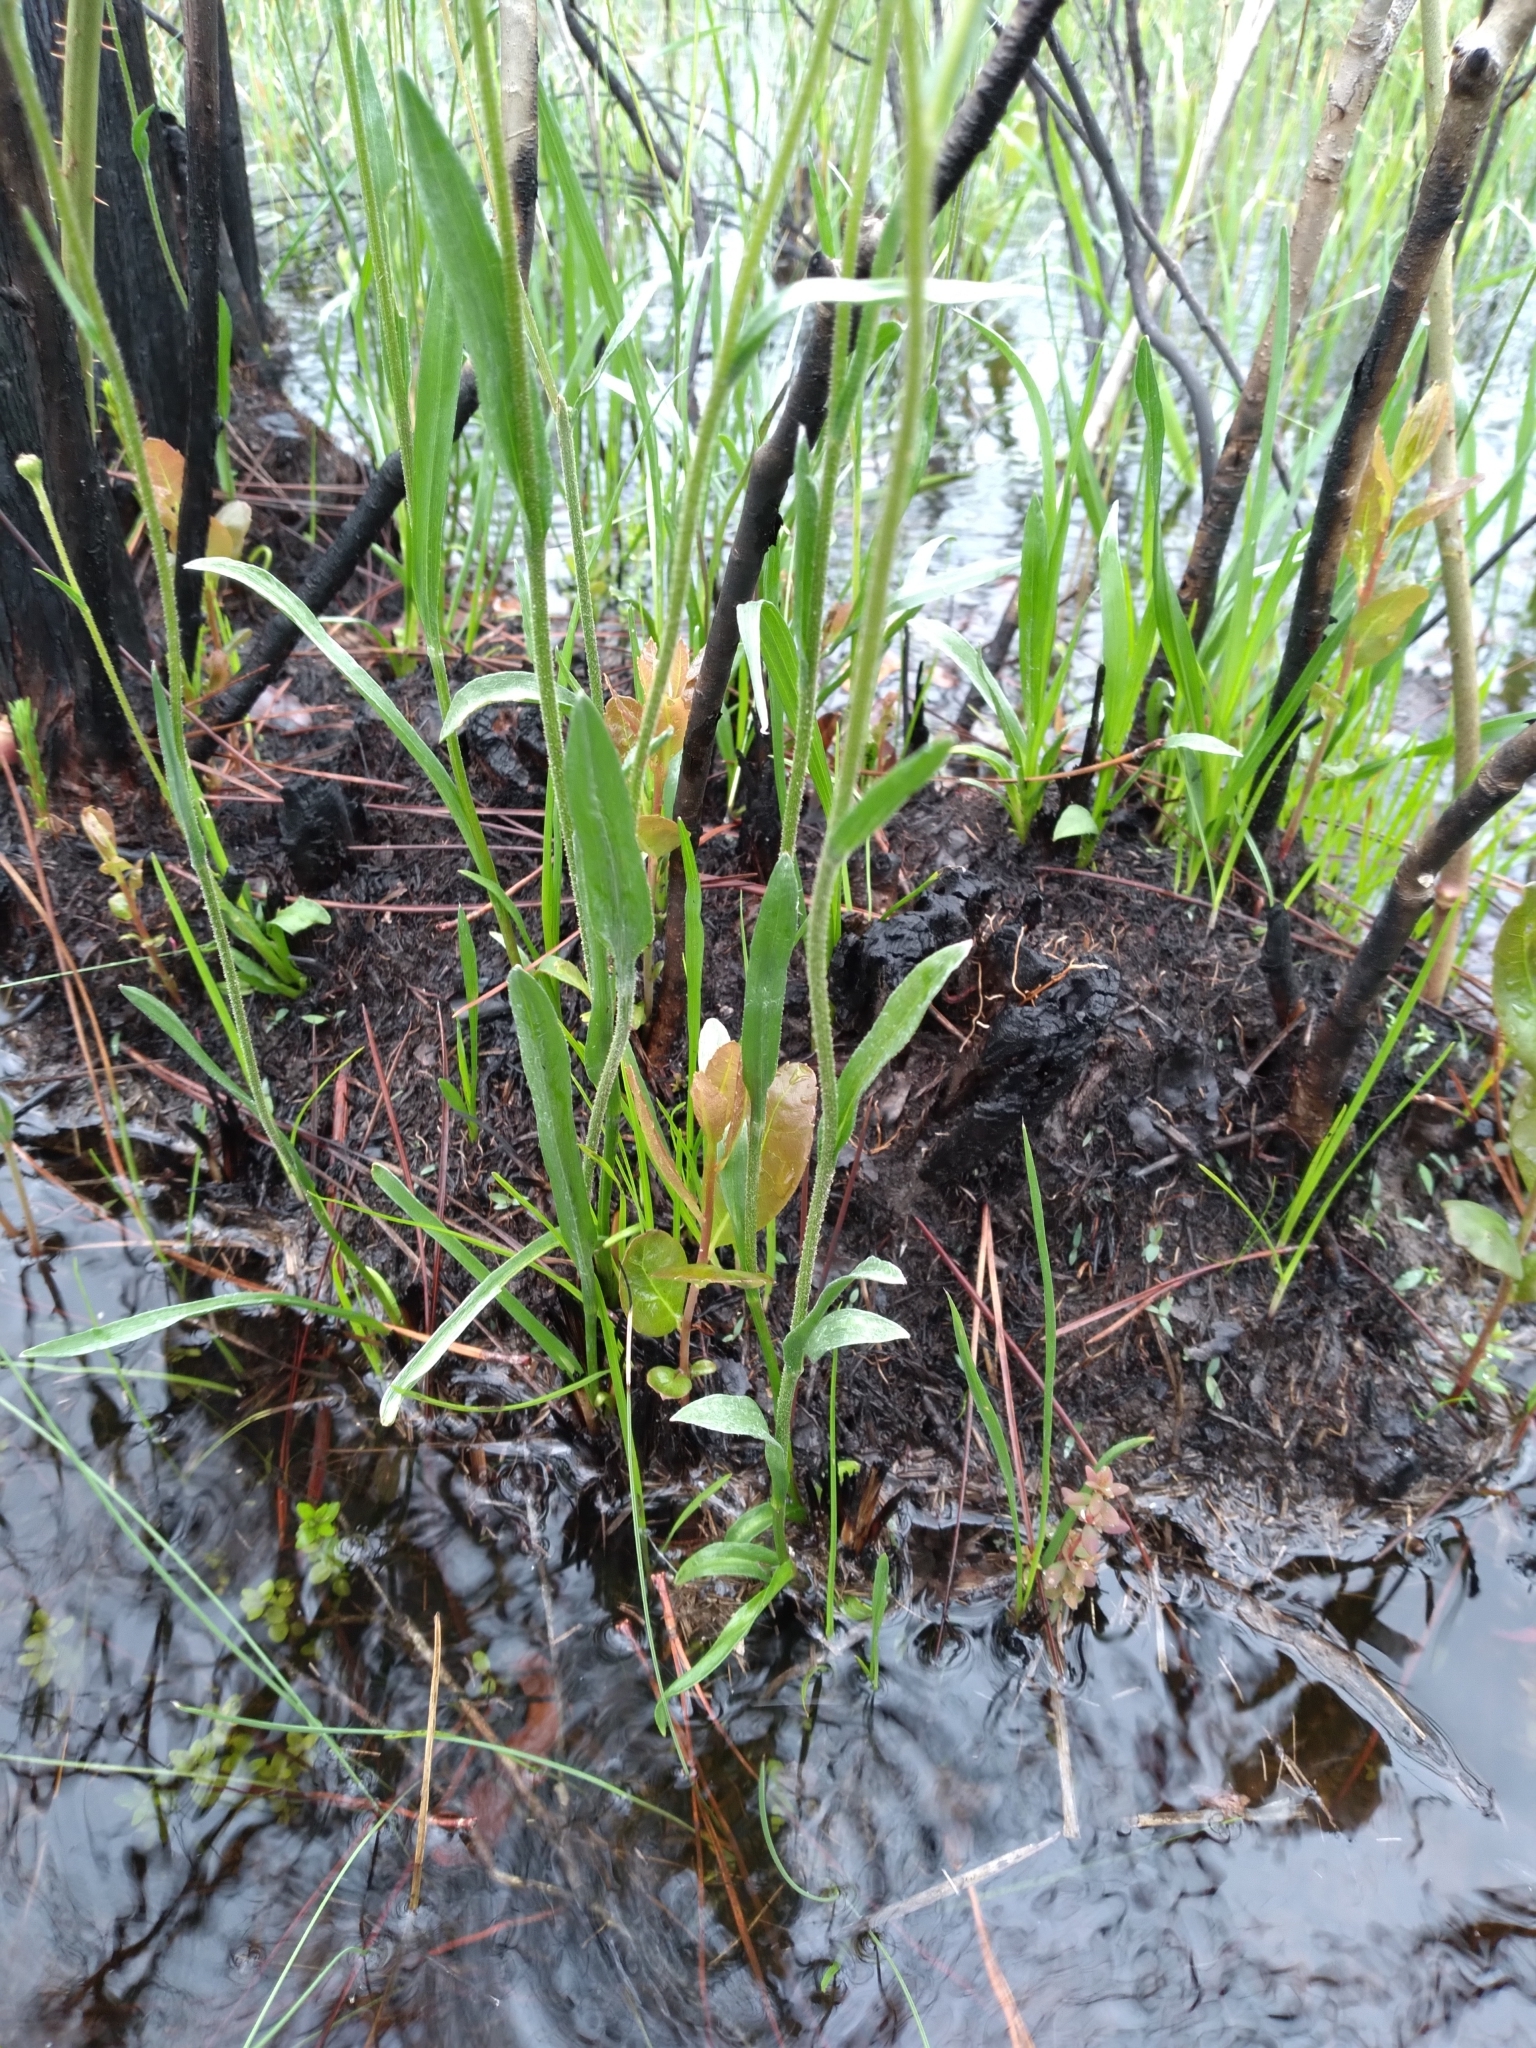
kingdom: Plantae
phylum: Tracheophyta
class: Magnoliopsida
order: Asterales
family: Asteraceae
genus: Pityopsis
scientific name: Pityopsis oligantha
